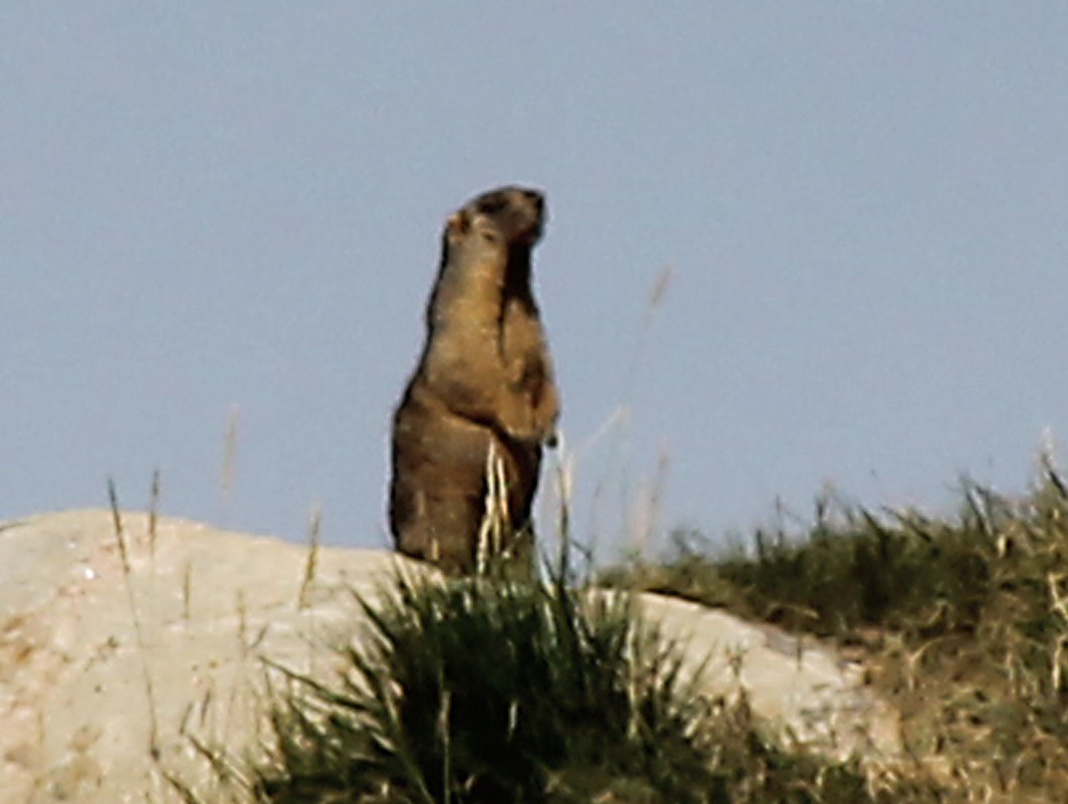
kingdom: Animalia
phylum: Chordata
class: Mammalia
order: Rodentia
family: Sciuridae
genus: Marmota
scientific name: Marmota baibacina
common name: Gray marmot
